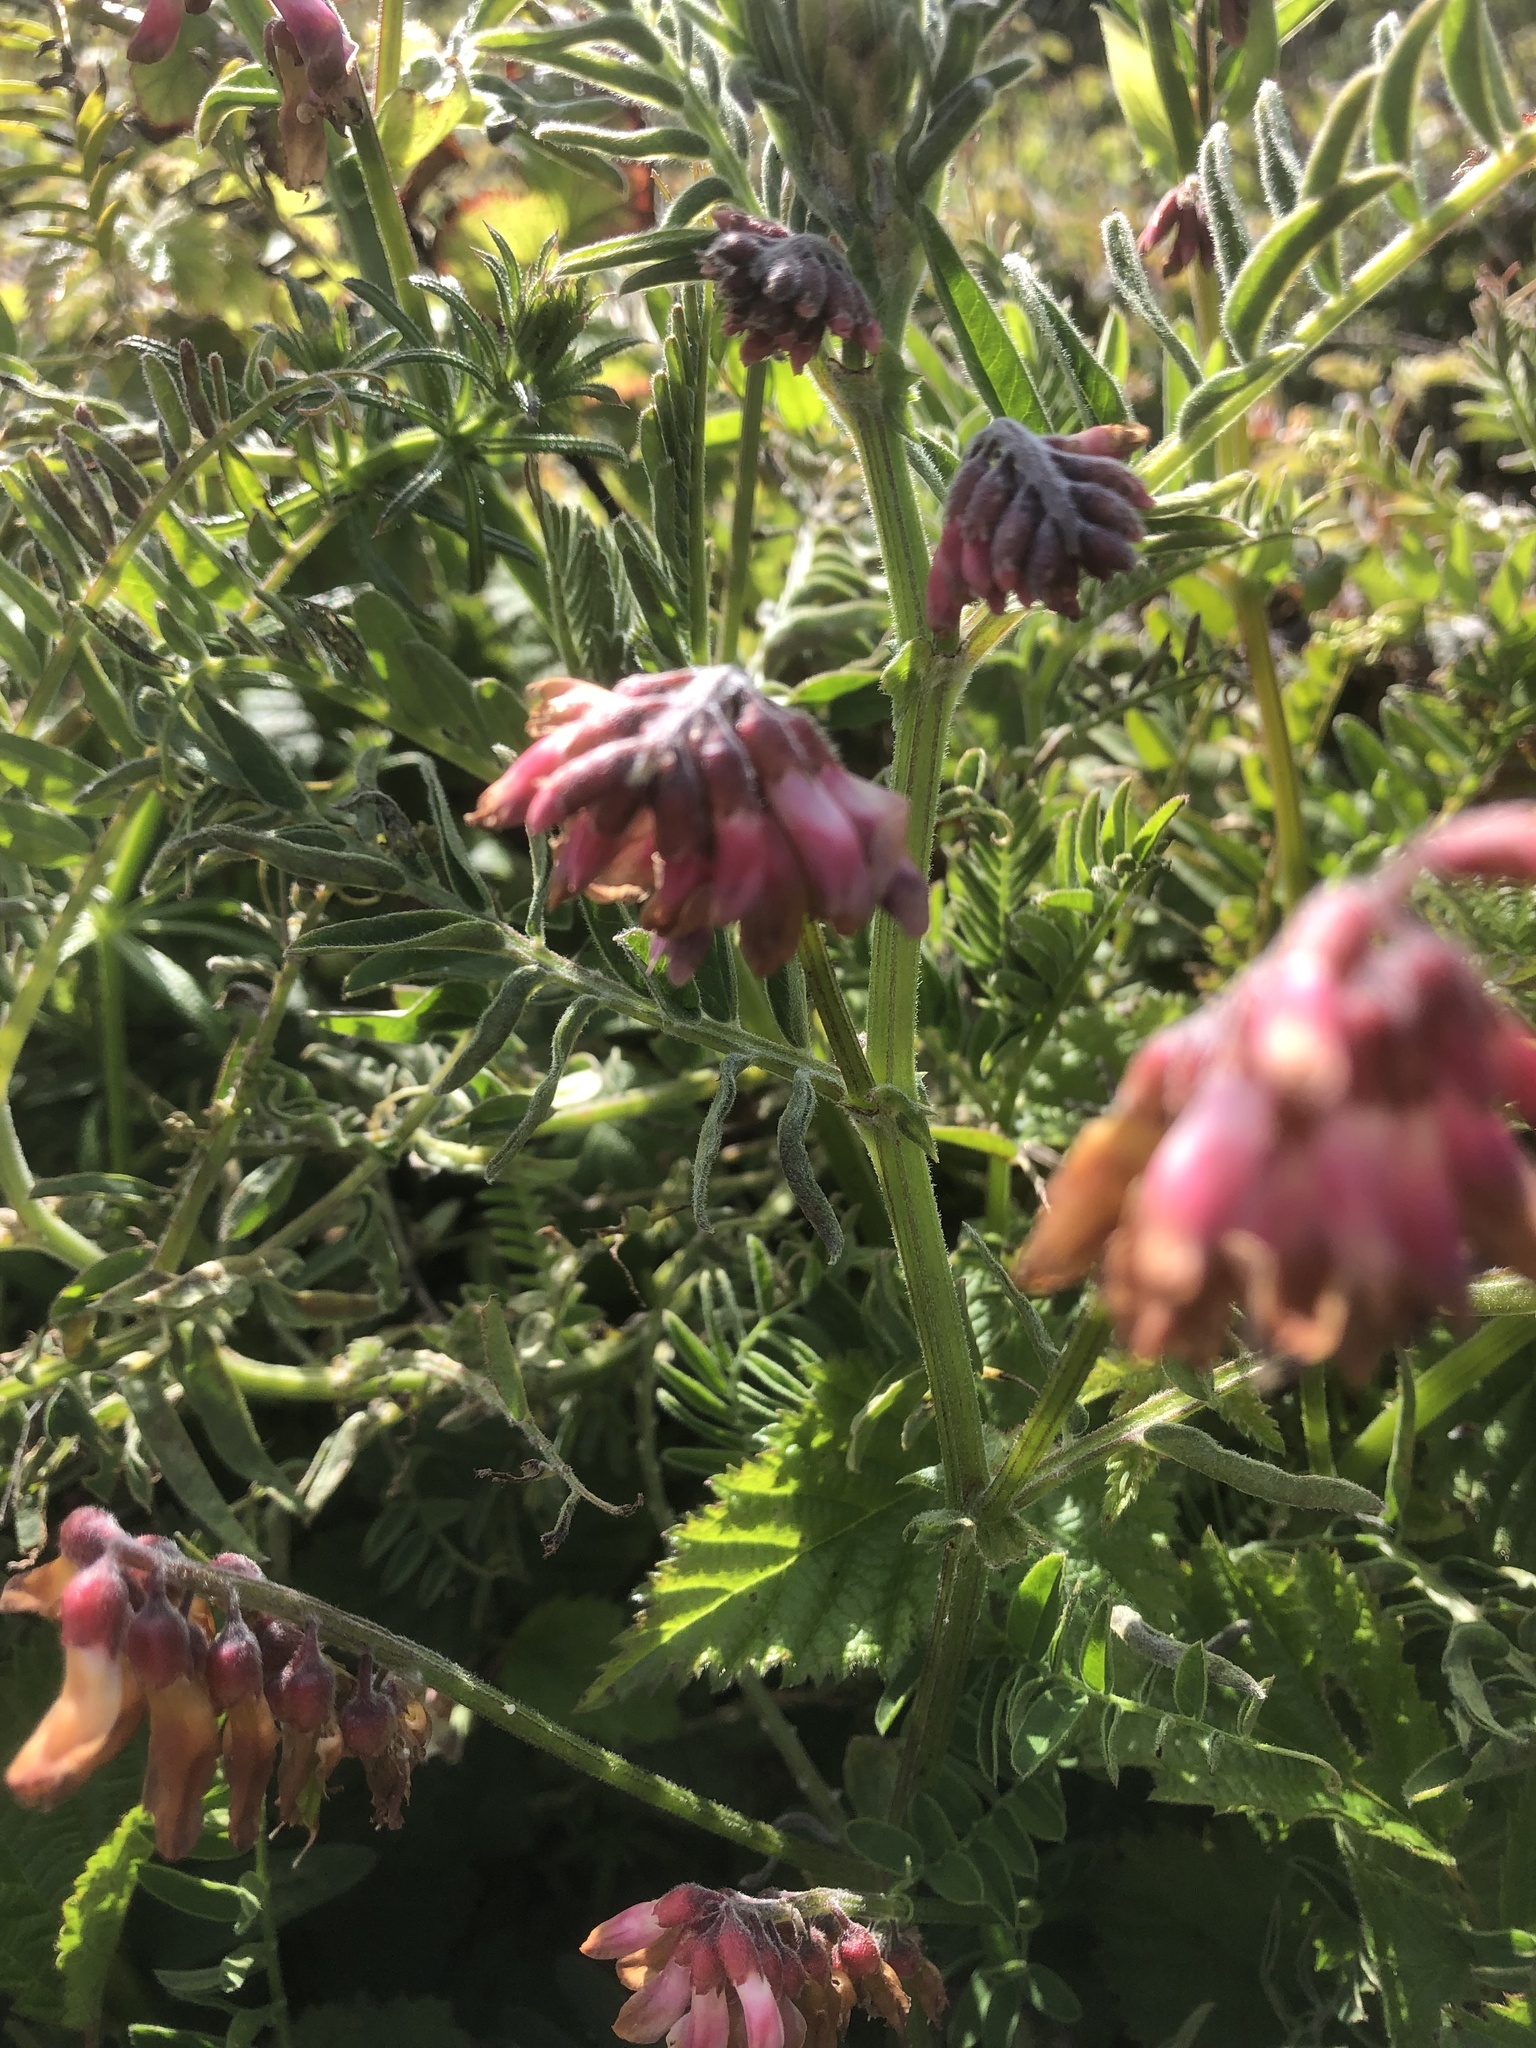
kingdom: Plantae
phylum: Tracheophyta
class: Magnoliopsida
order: Fabales
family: Fabaceae
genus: Vicia
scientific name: Vicia
